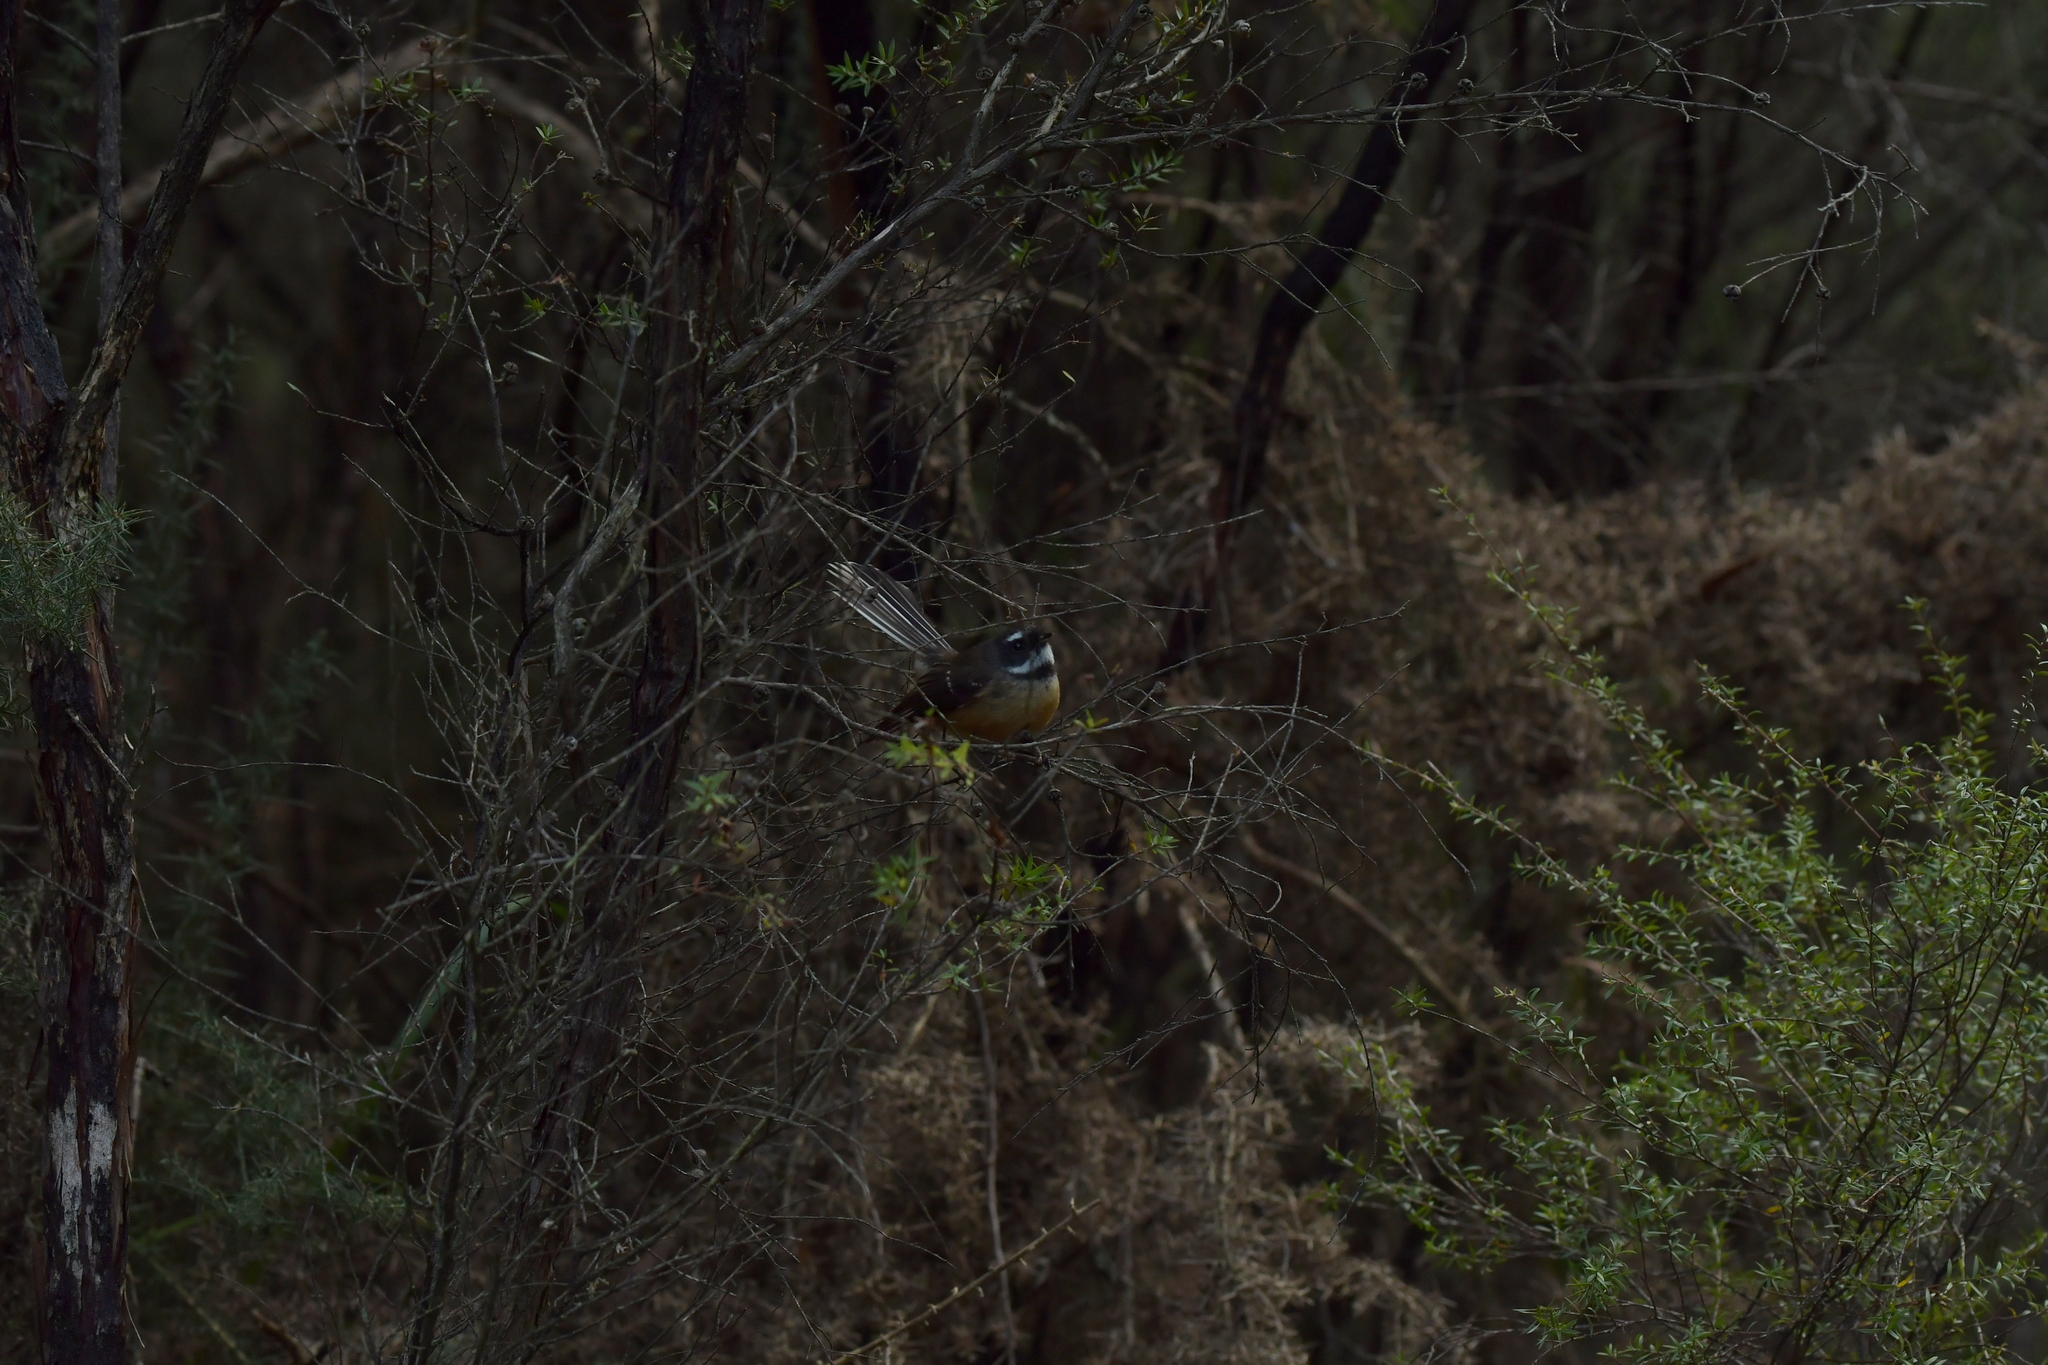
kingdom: Animalia
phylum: Chordata
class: Aves
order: Passeriformes
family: Rhipiduridae
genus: Rhipidura
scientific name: Rhipidura fuliginosa
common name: New zealand fantail
